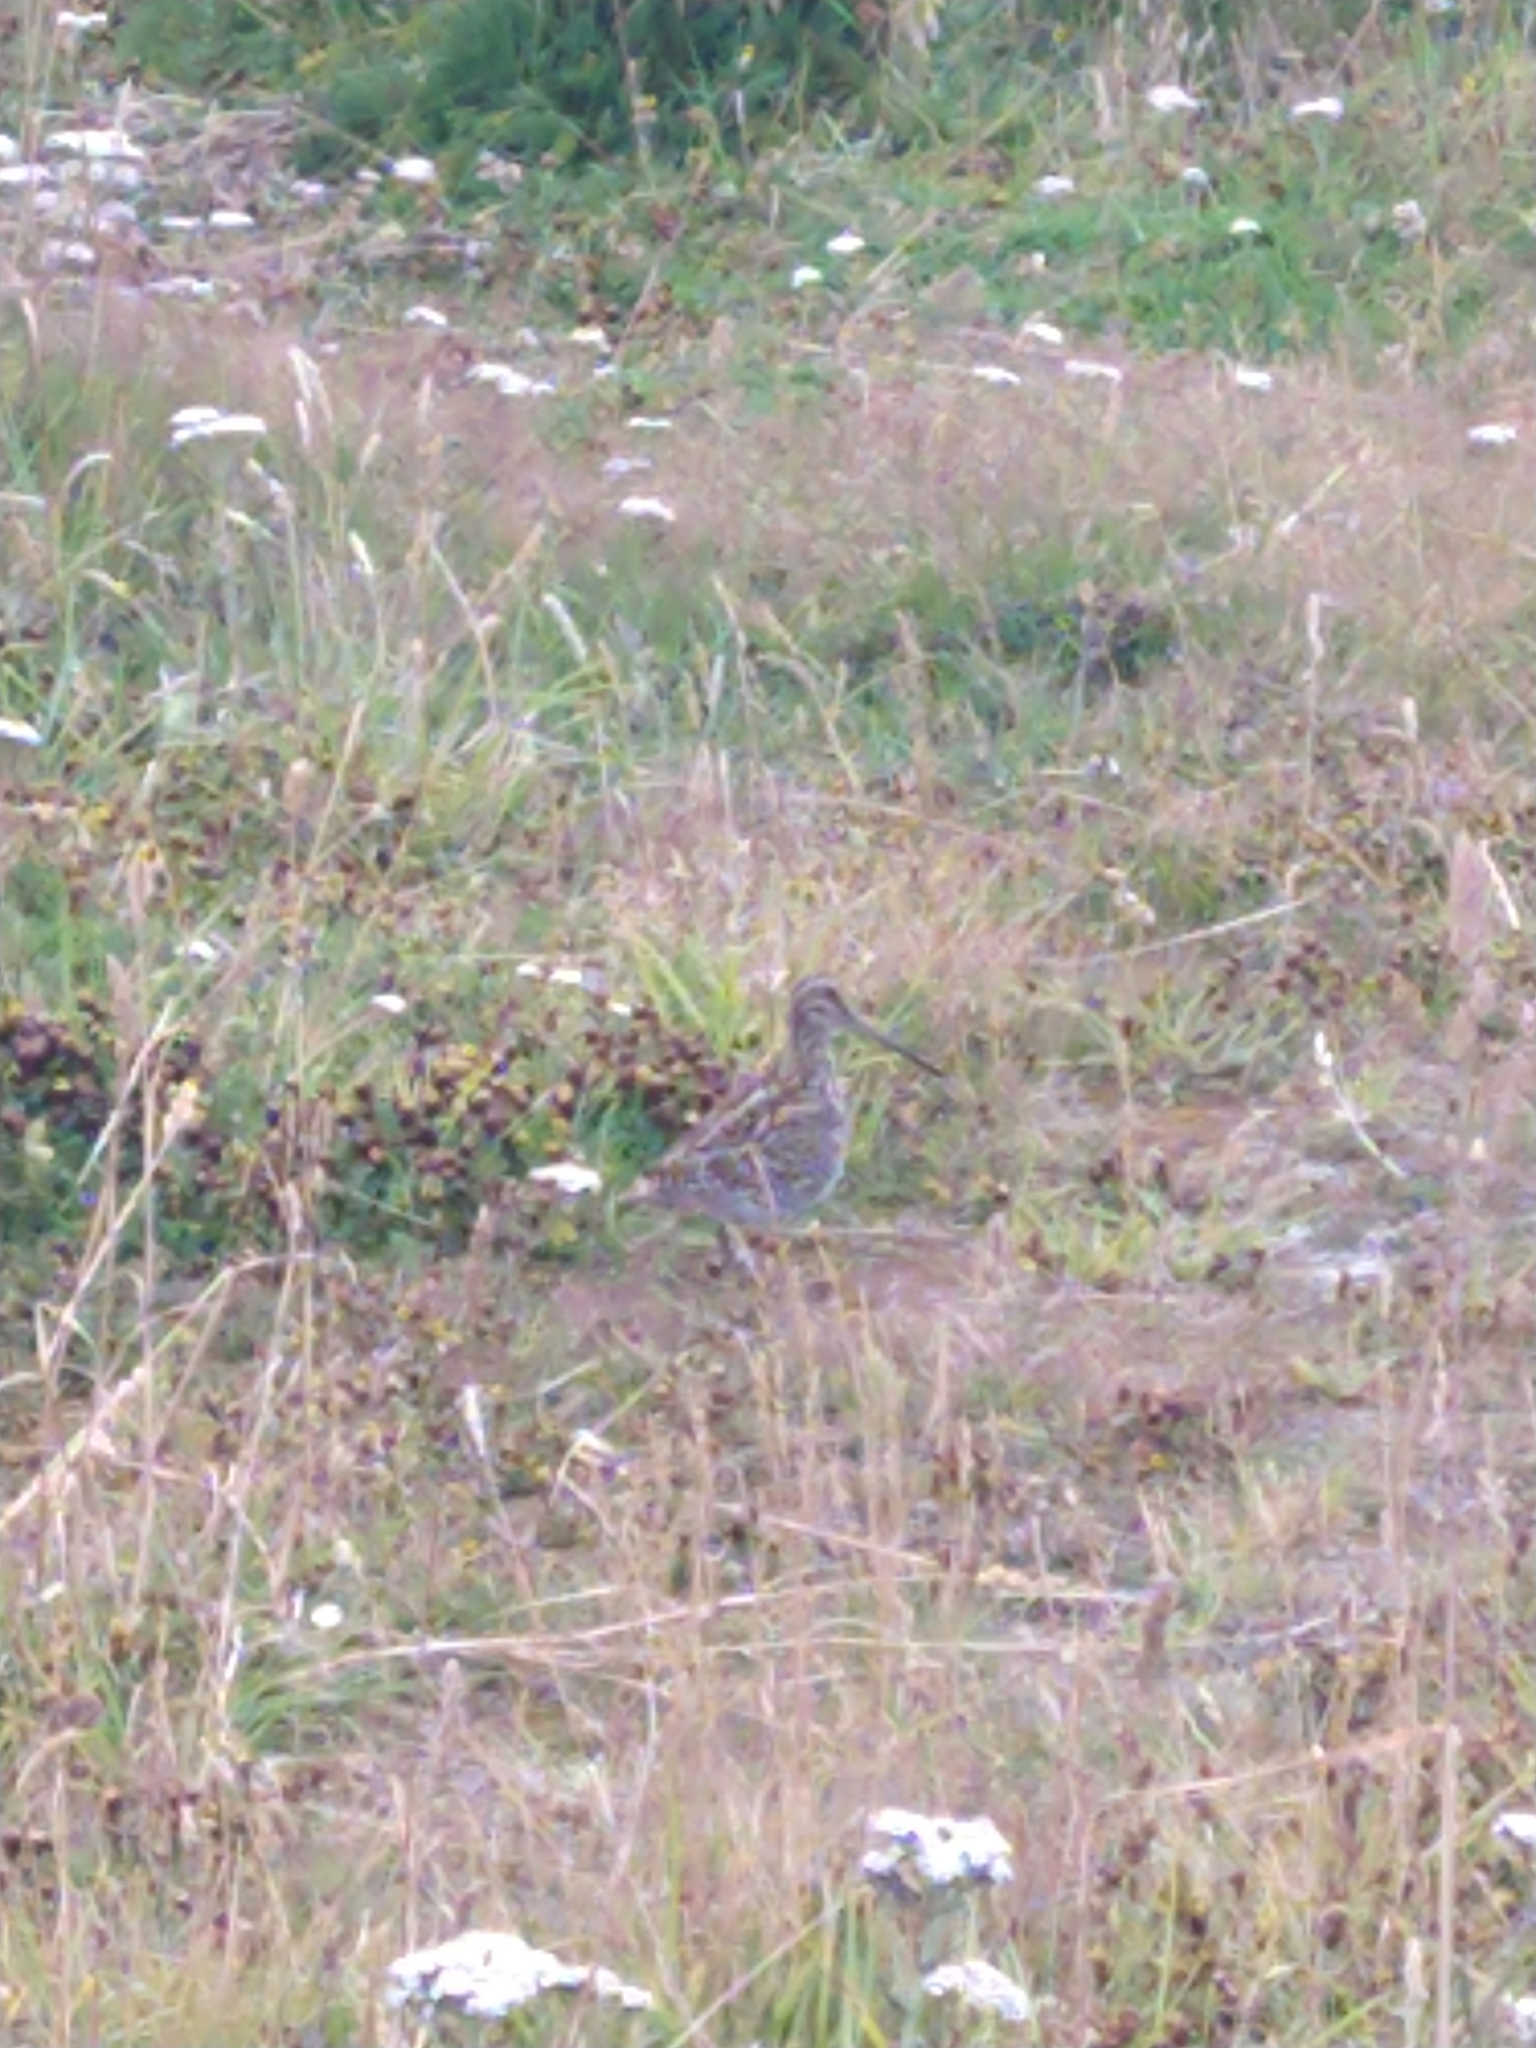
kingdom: Animalia
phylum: Chordata
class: Aves
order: Charadriiformes
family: Scolopacidae
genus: Gallinago
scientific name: Gallinago magellanica
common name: Magellanic snipe
